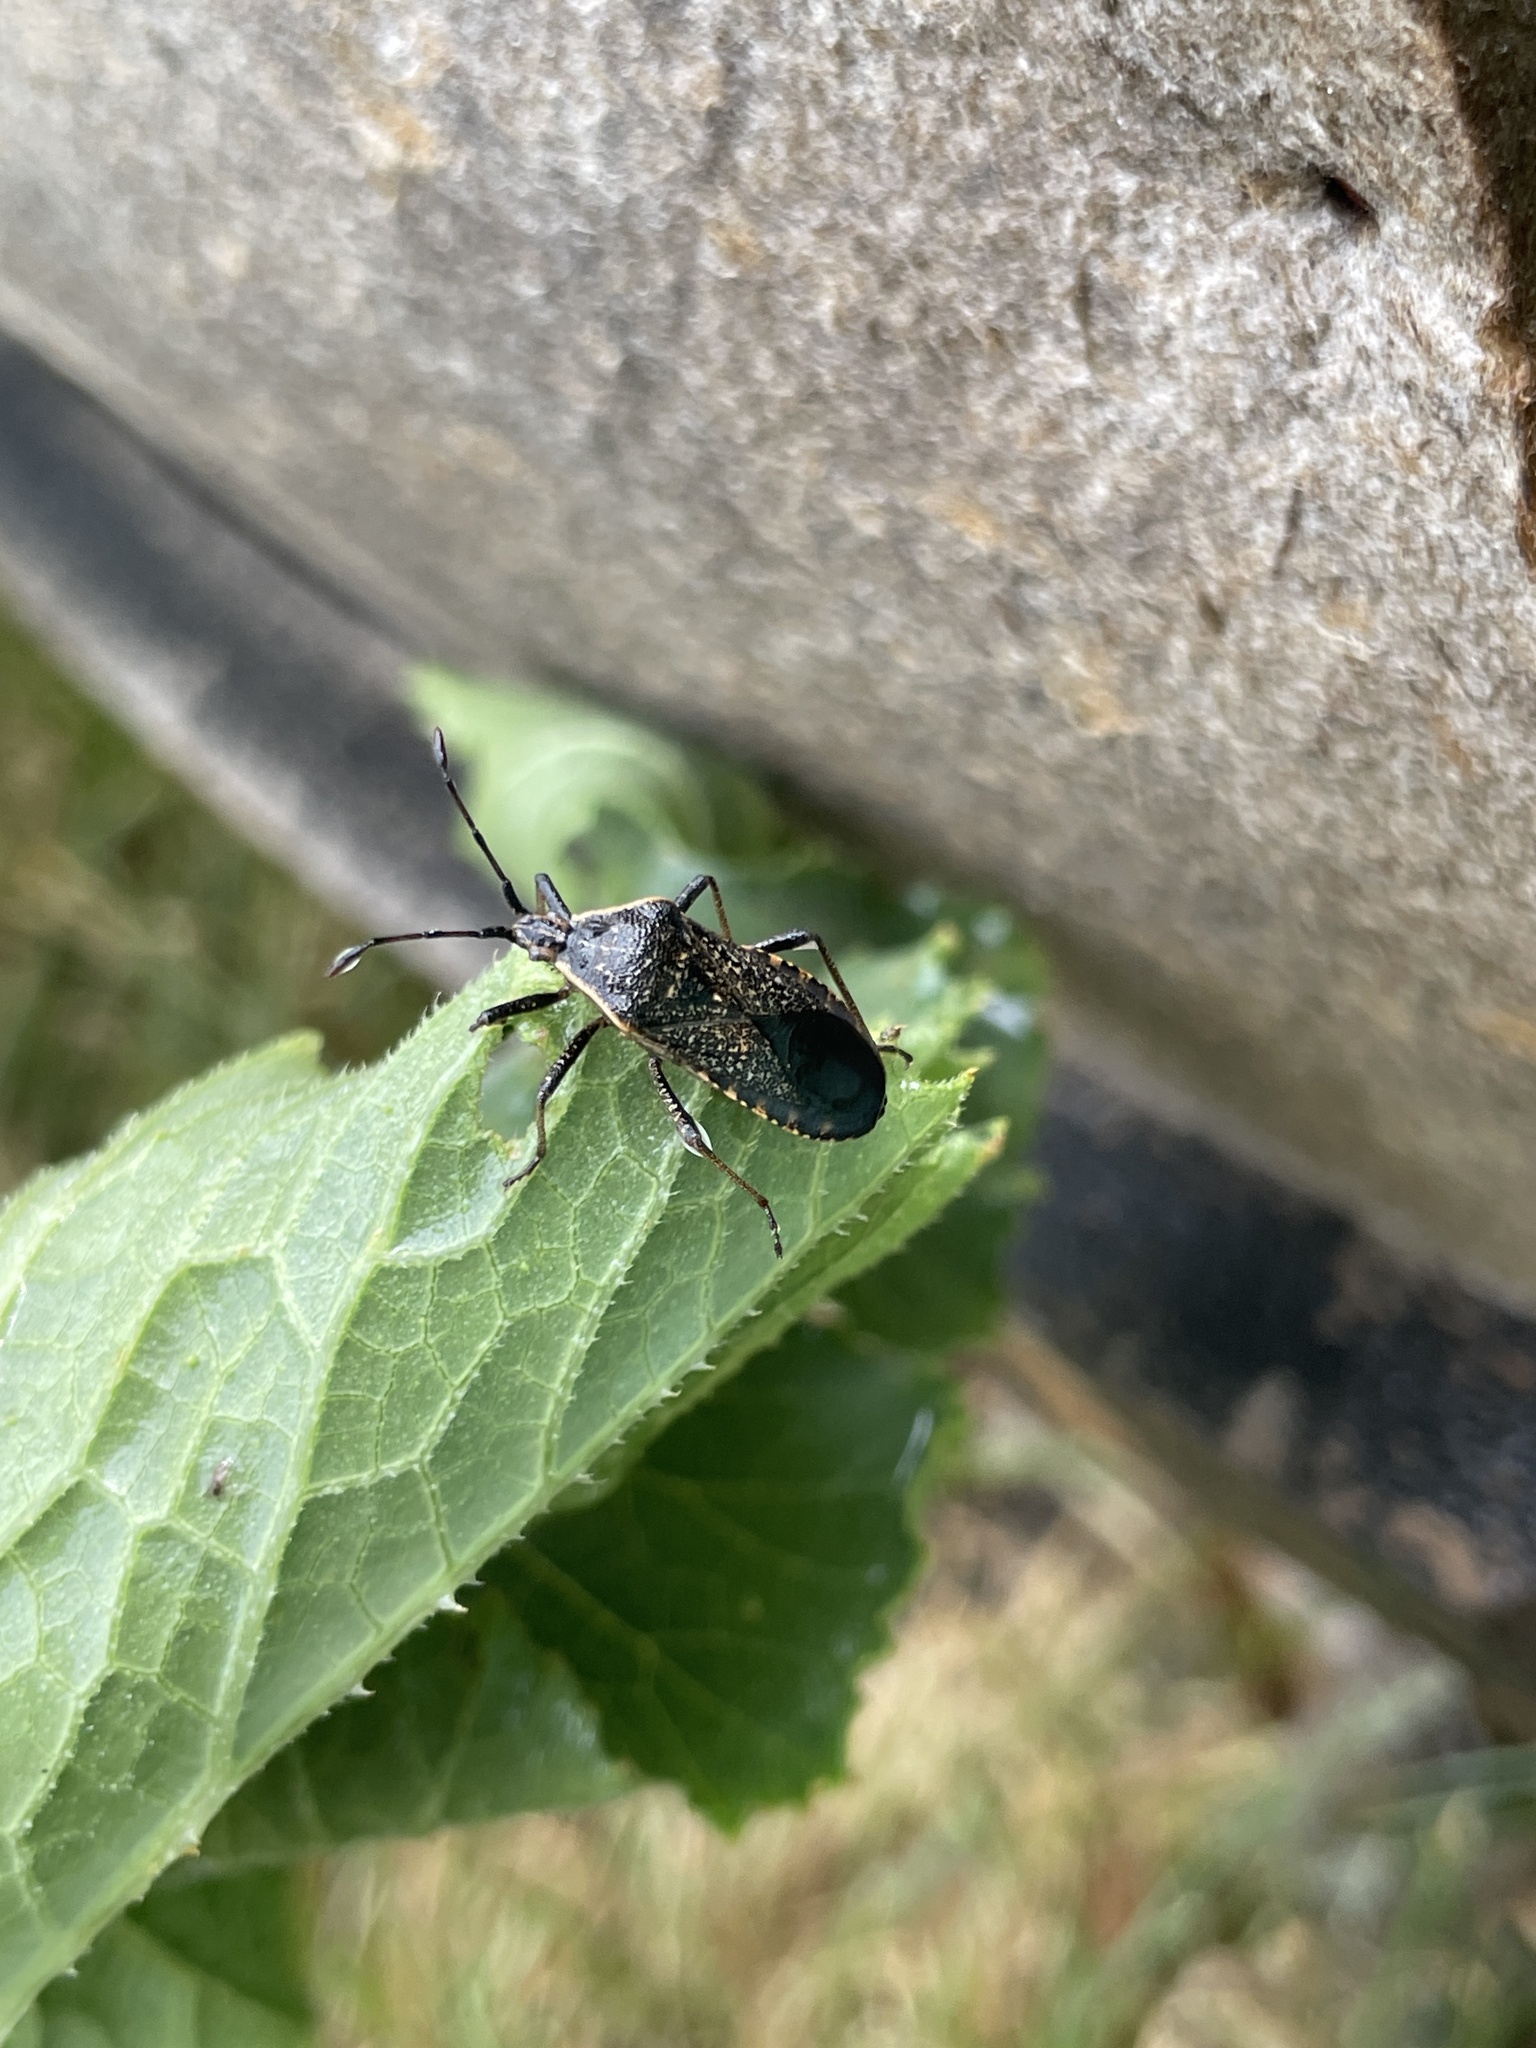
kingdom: Animalia
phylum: Arthropoda
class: Insecta
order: Hemiptera
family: Coreidae
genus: Anasa
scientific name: Anasa tristis
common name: Squash bug
